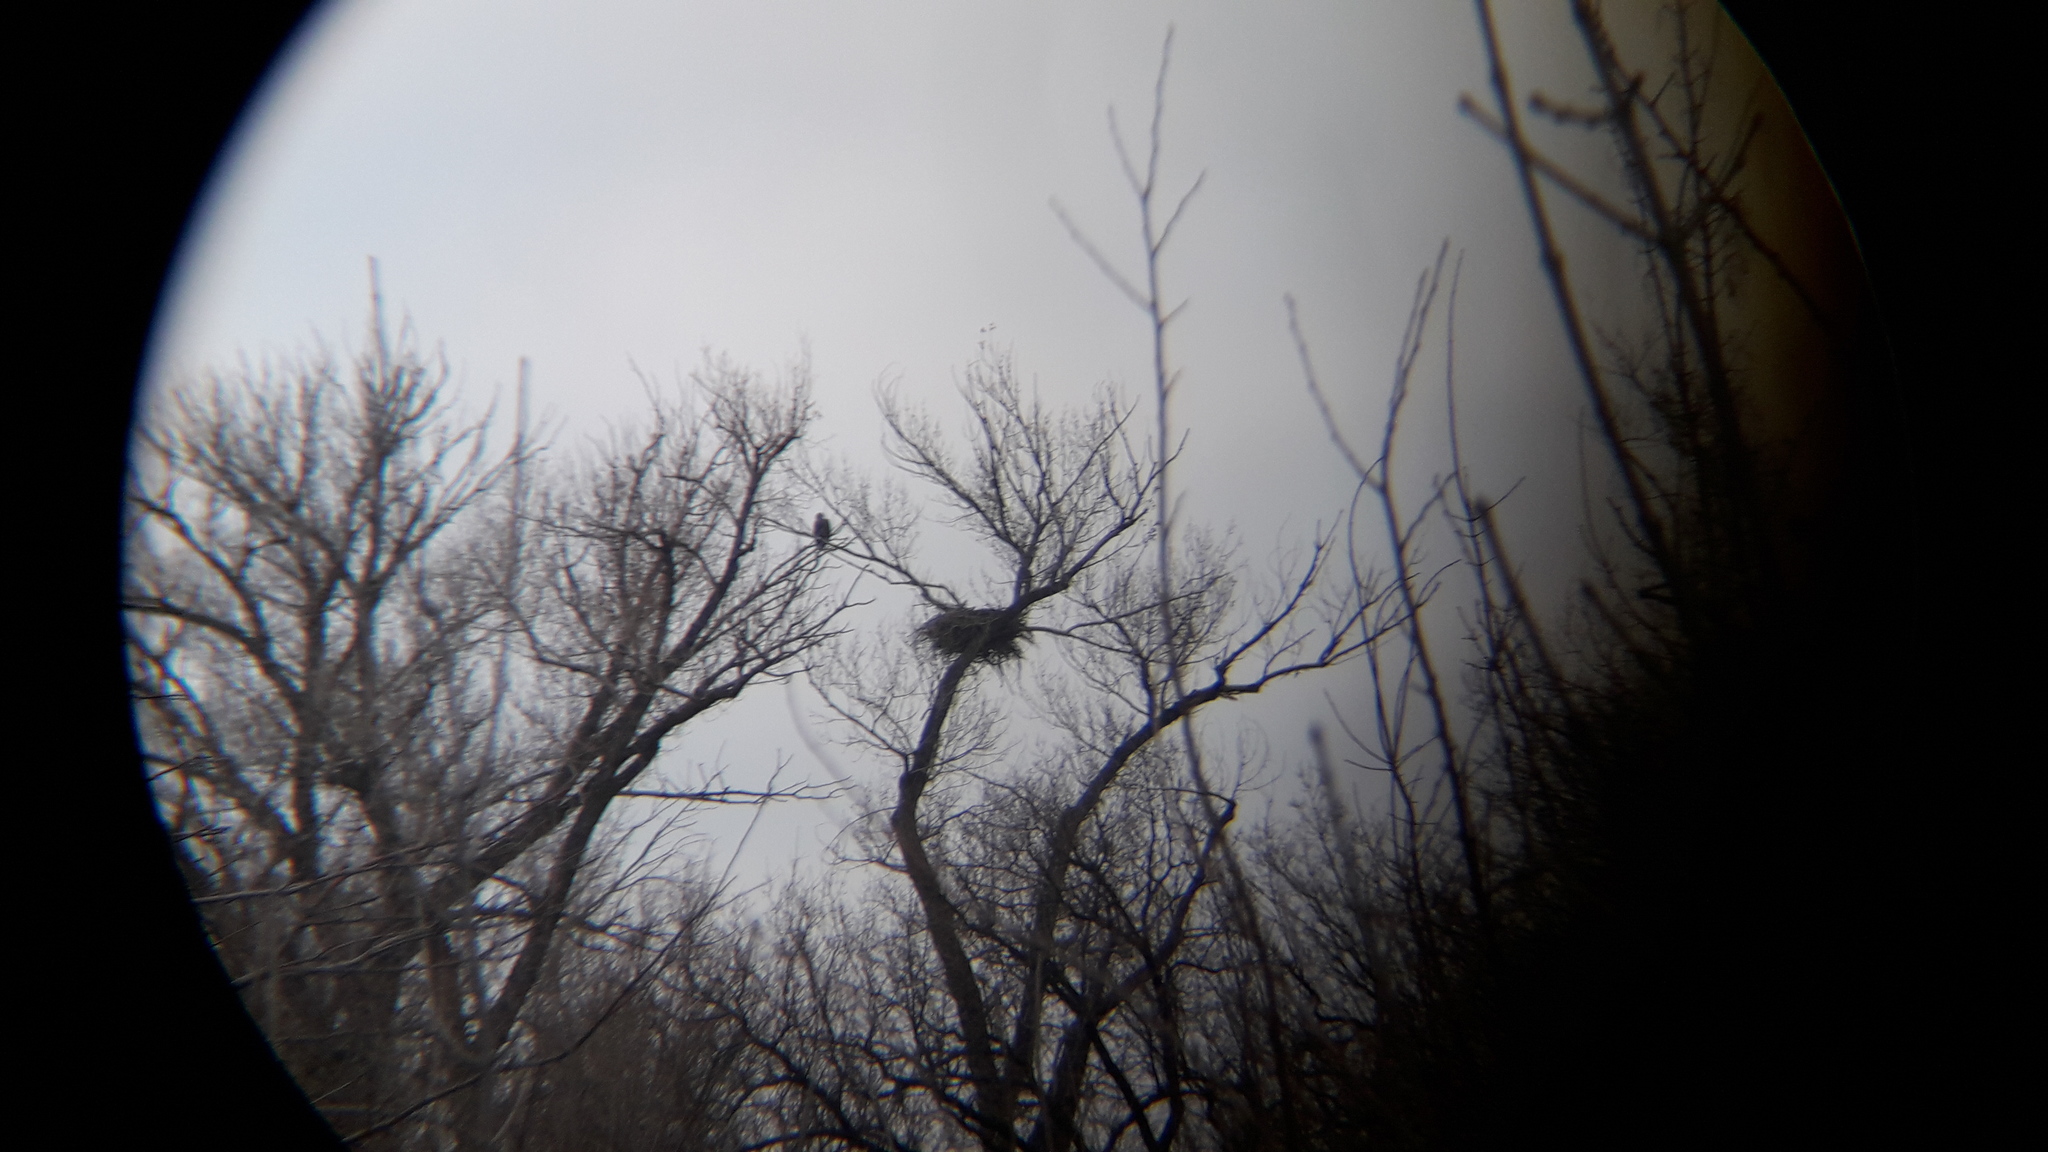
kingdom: Animalia
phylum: Chordata
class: Aves
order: Accipitriformes
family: Accipitridae
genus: Haliaeetus
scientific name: Haliaeetus albicilla
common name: White-tailed eagle
